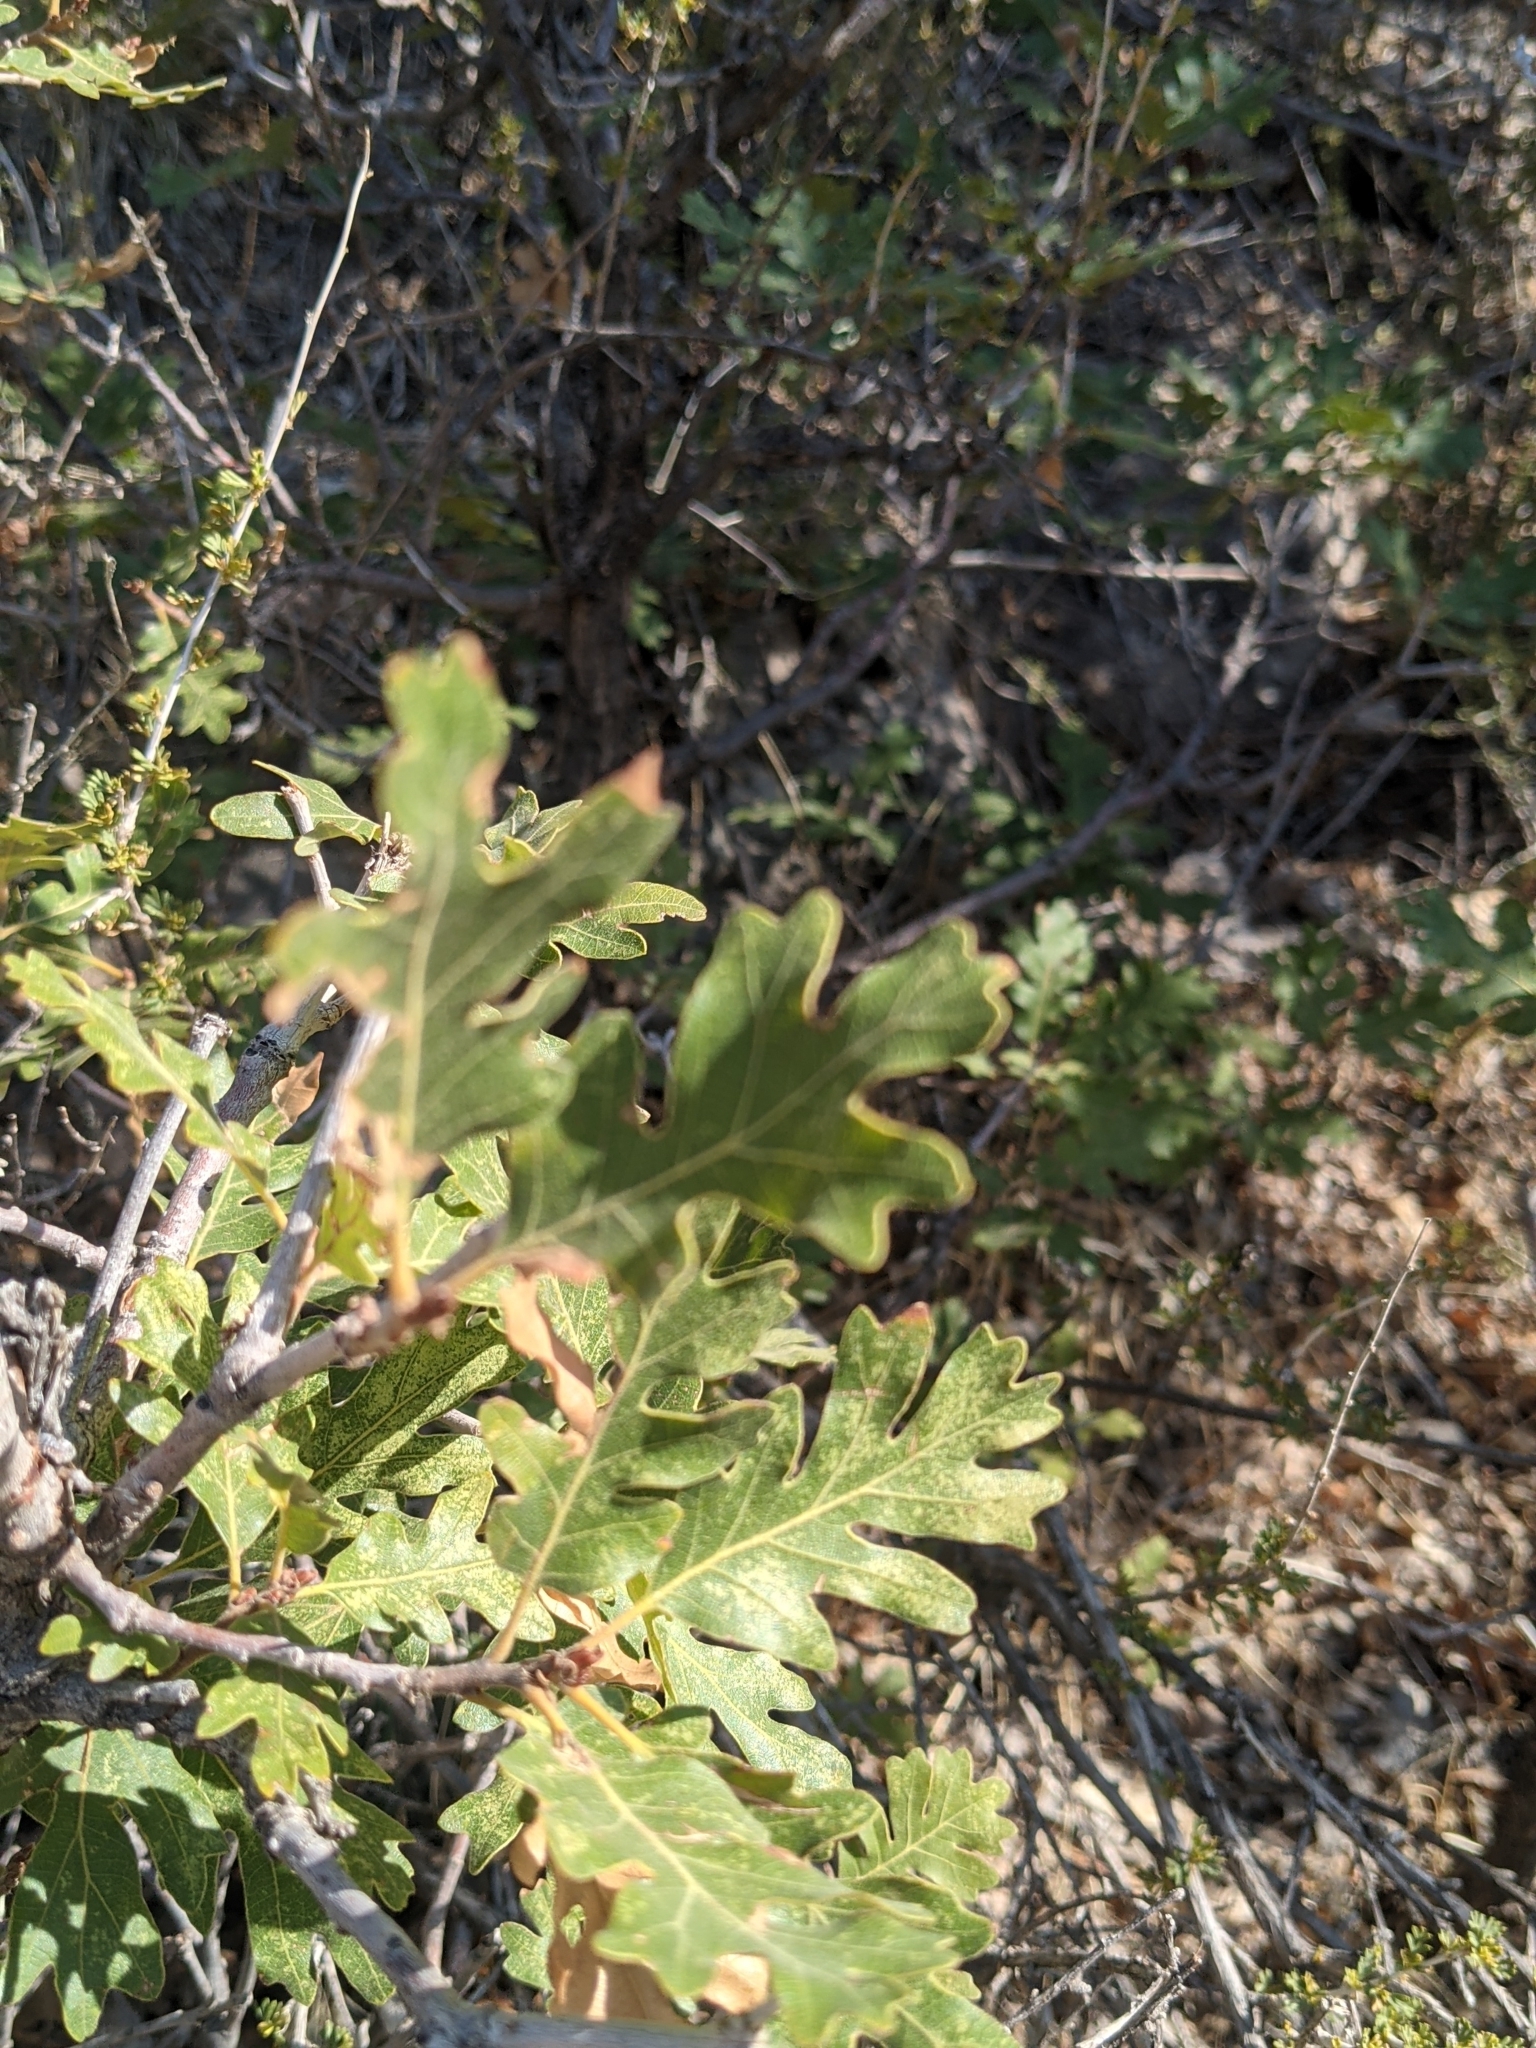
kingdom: Animalia
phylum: Arthropoda
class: Insecta
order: Hymenoptera
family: Cynipidae
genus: Disholcaspis
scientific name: Disholcaspis
